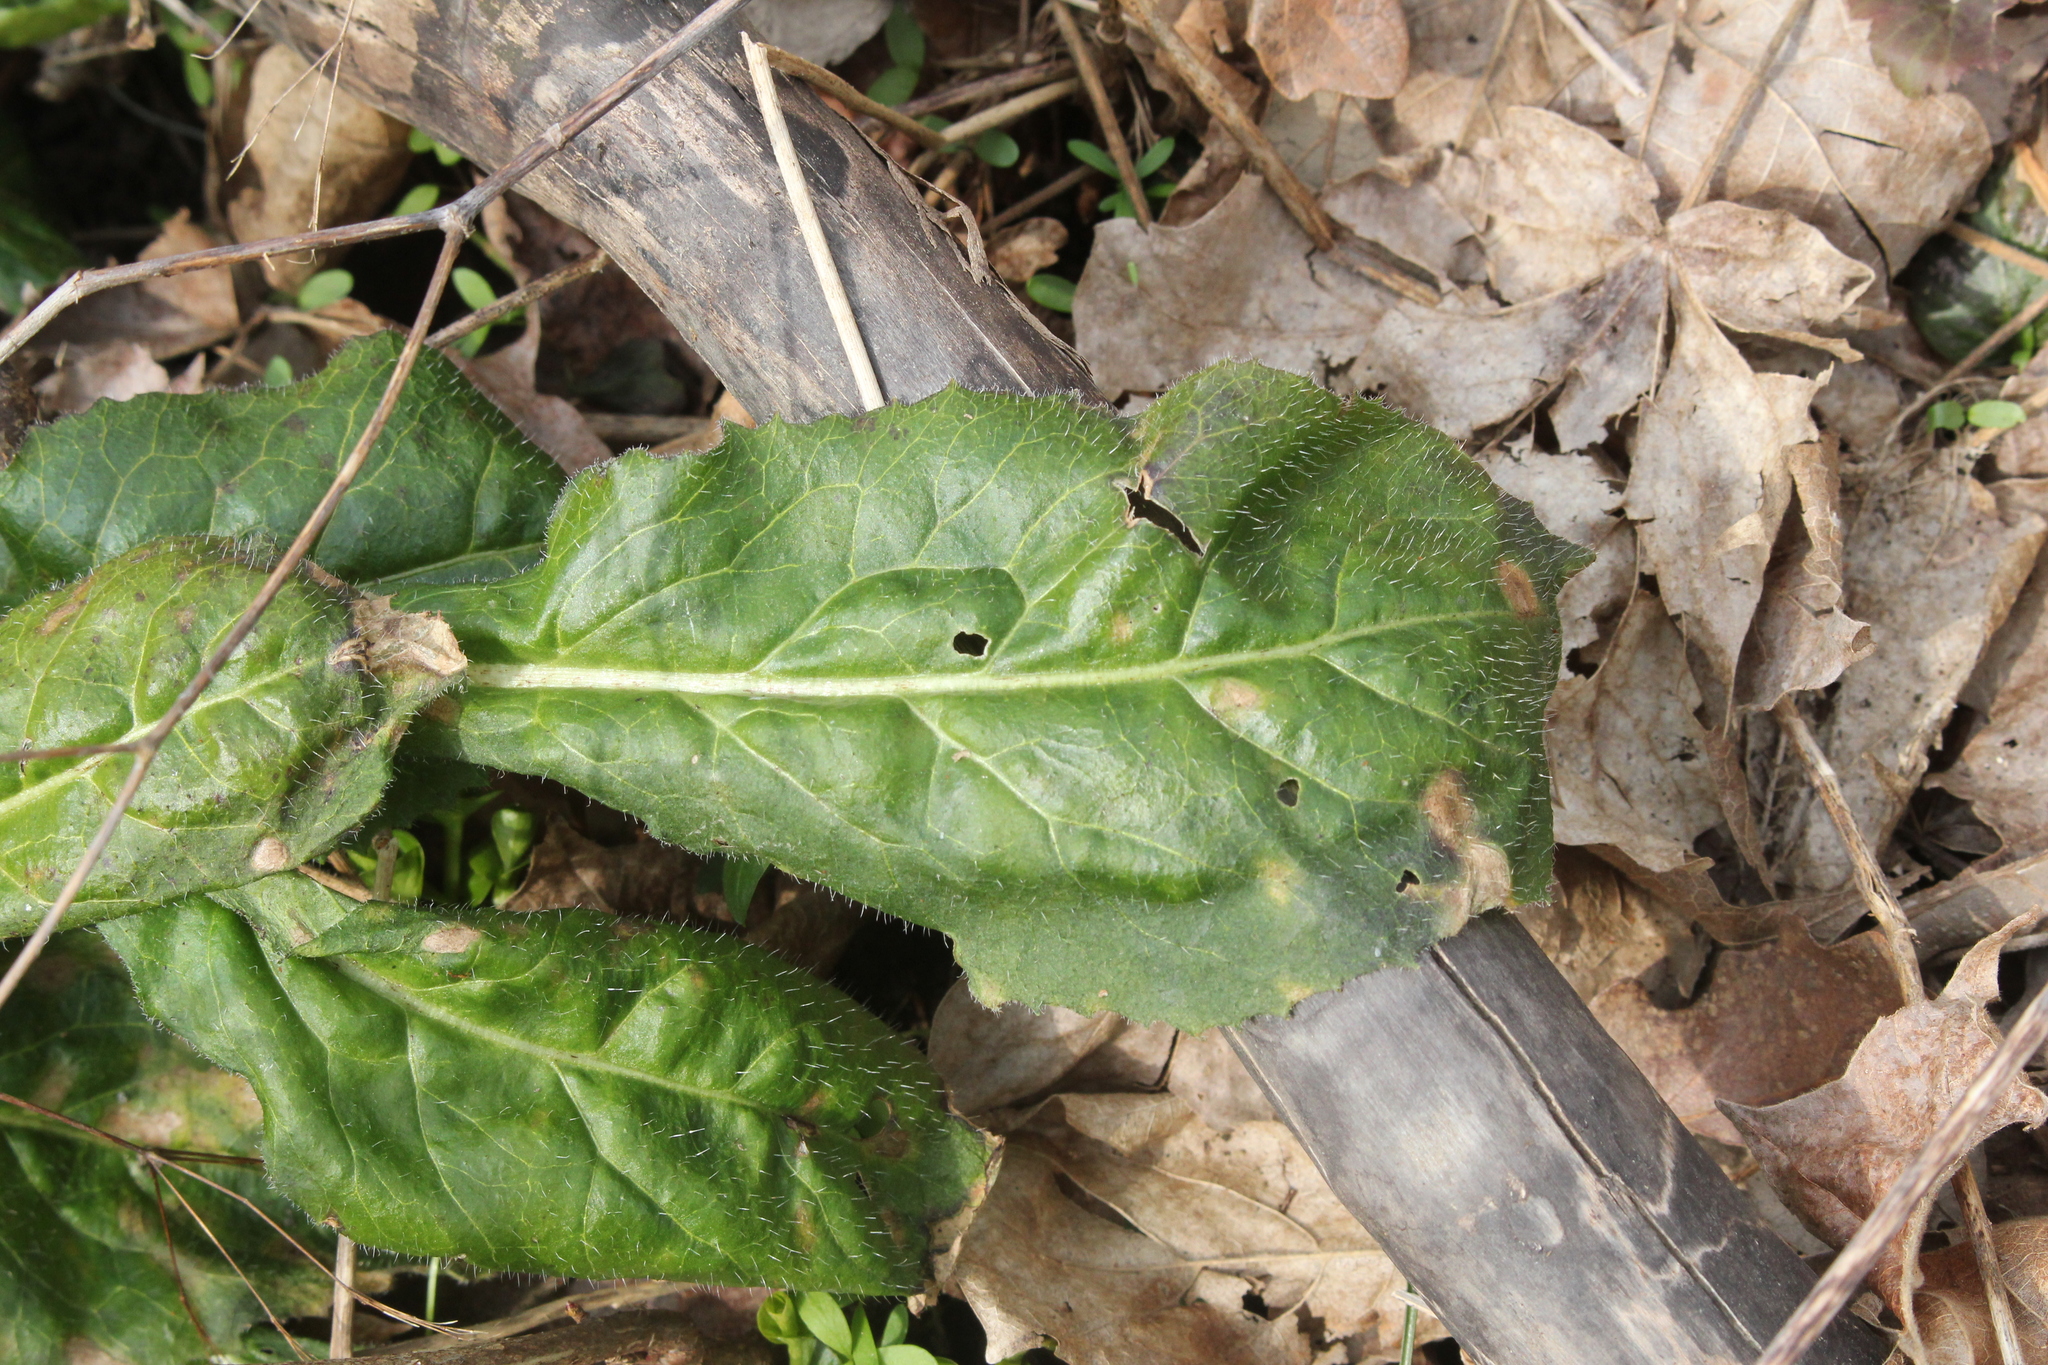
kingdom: Plantae
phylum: Tracheophyta
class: Magnoliopsida
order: Brassicales
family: Brassicaceae
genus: Hesperis
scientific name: Hesperis matronalis
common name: Dame's-violet
